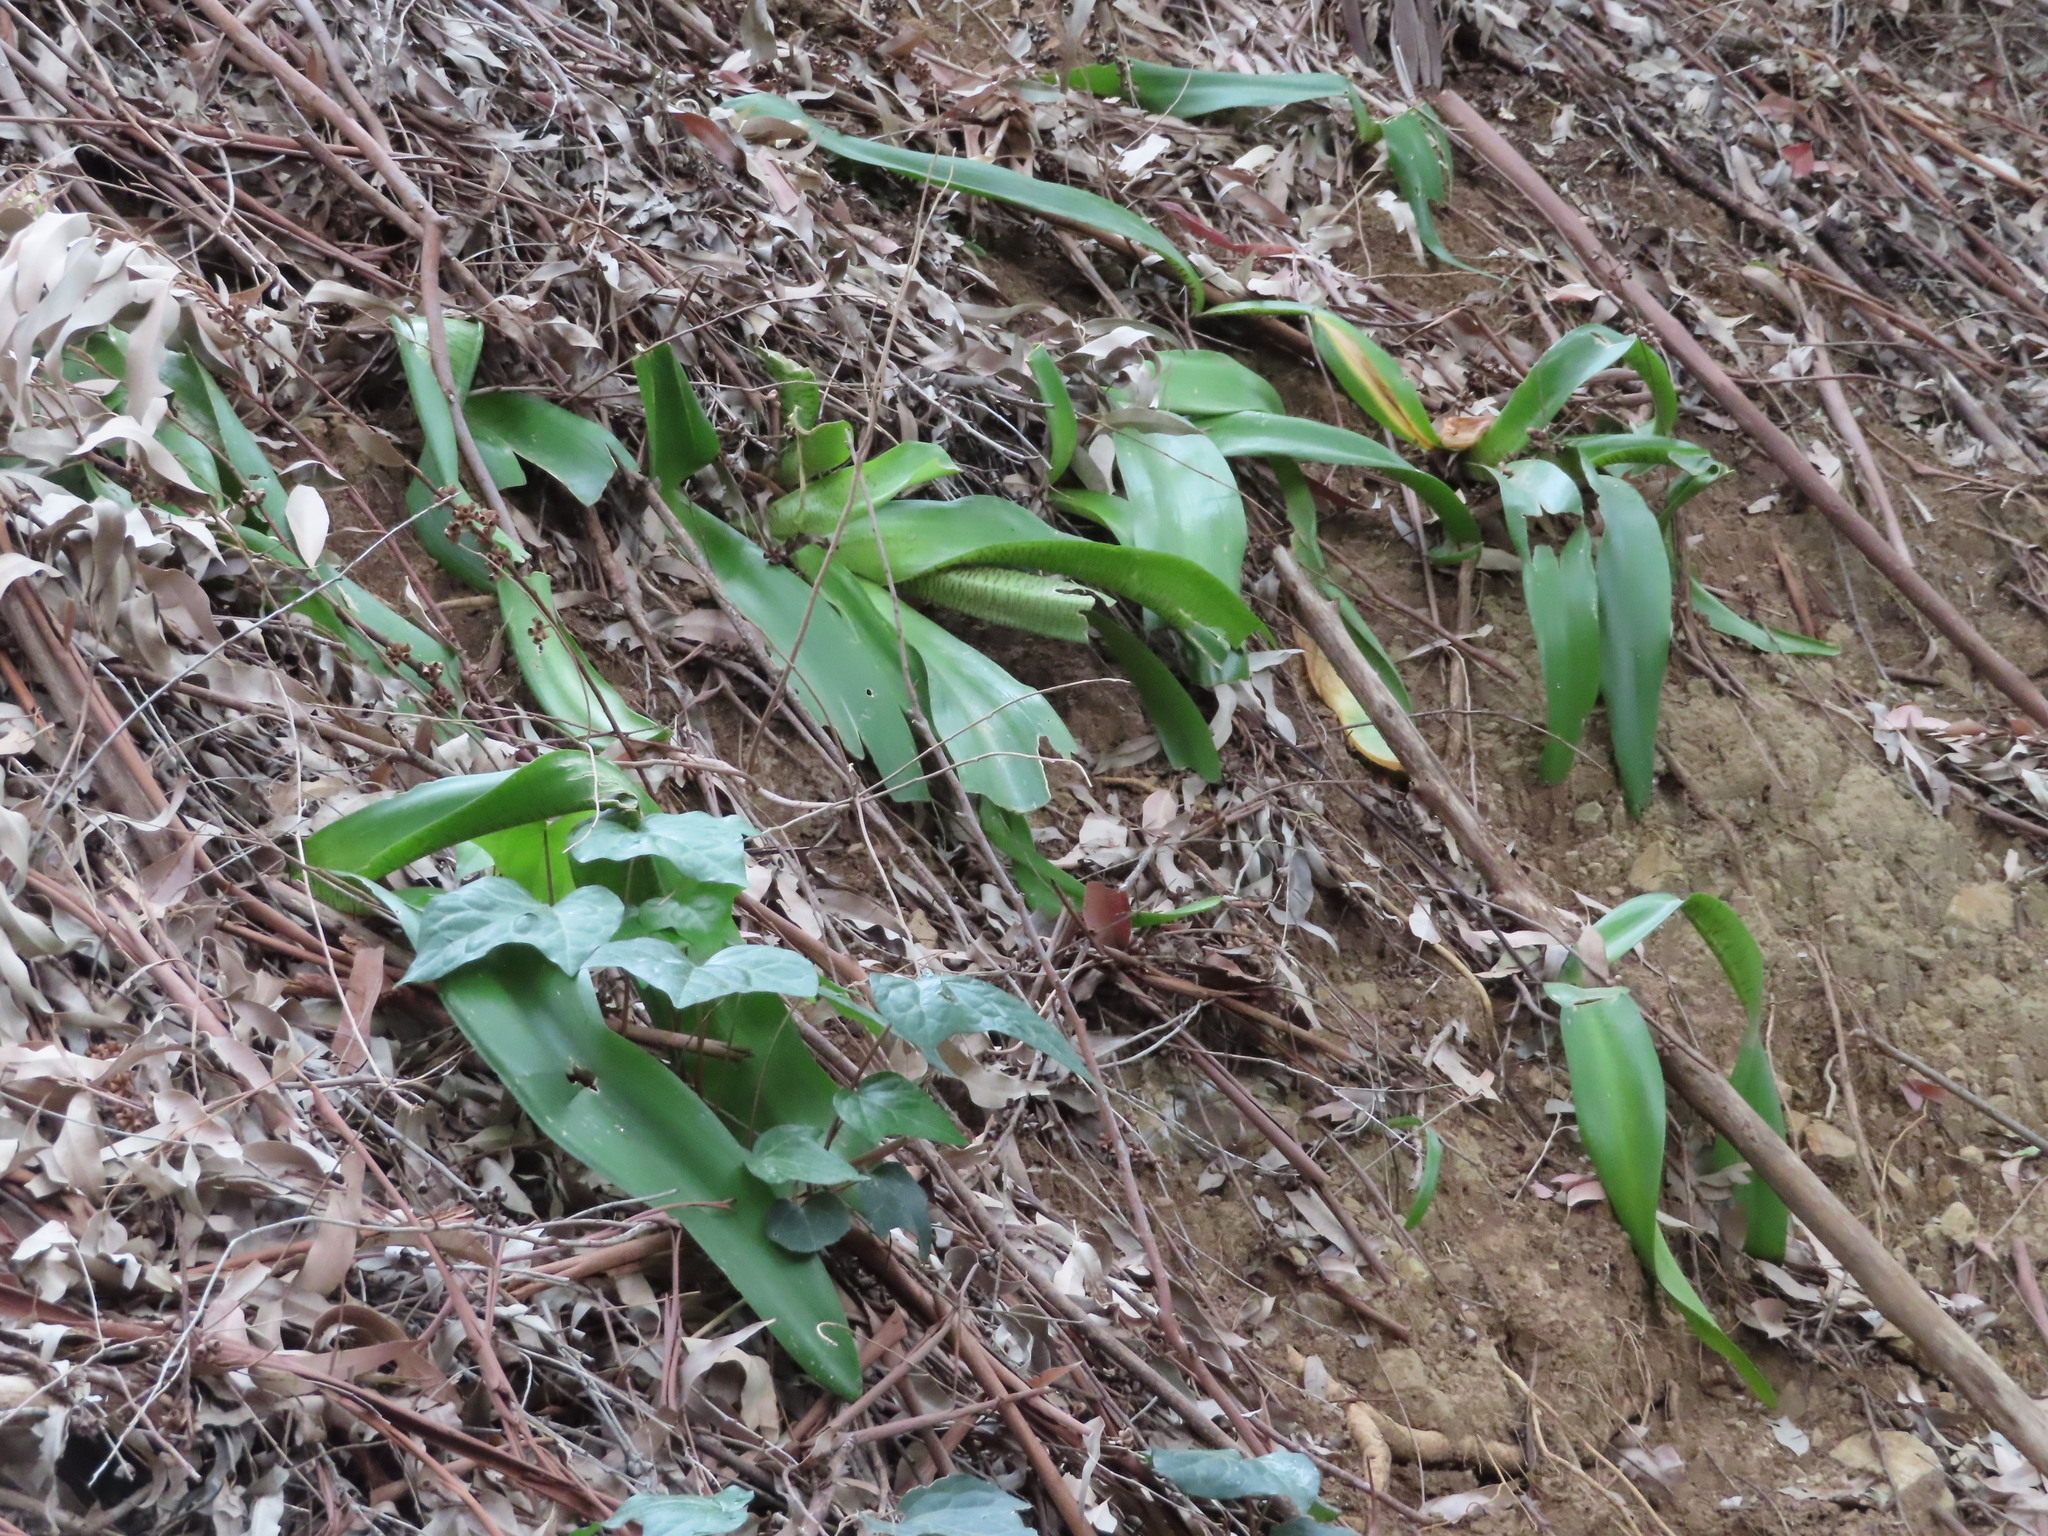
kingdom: Plantae
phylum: Tracheophyta
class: Liliopsida
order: Asparagales
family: Amaryllidaceae
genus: Haemanthus
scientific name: Haemanthus coccineus
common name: Cape-tulip
